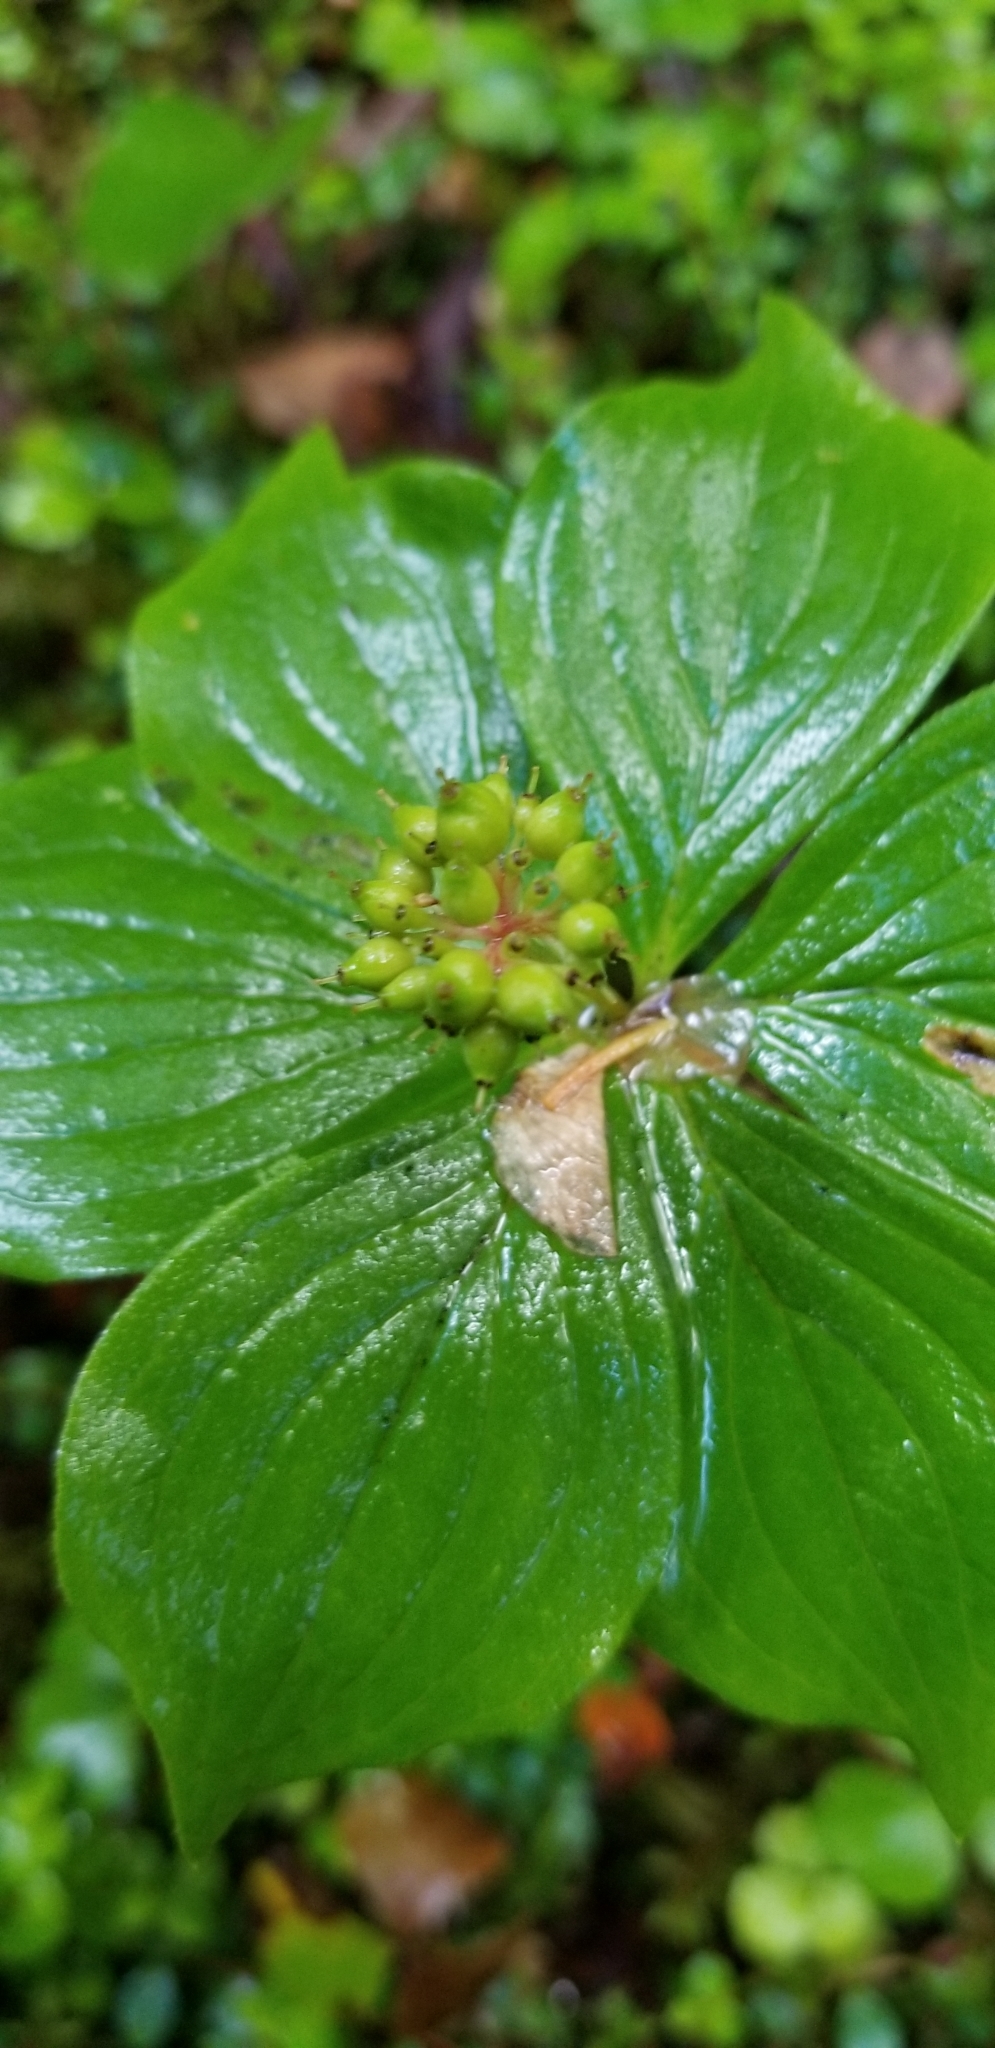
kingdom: Plantae
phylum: Tracheophyta
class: Magnoliopsida
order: Cornales
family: Cornaceae
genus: Cornus
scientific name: Cornus canadensis
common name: Creeping dogwood
